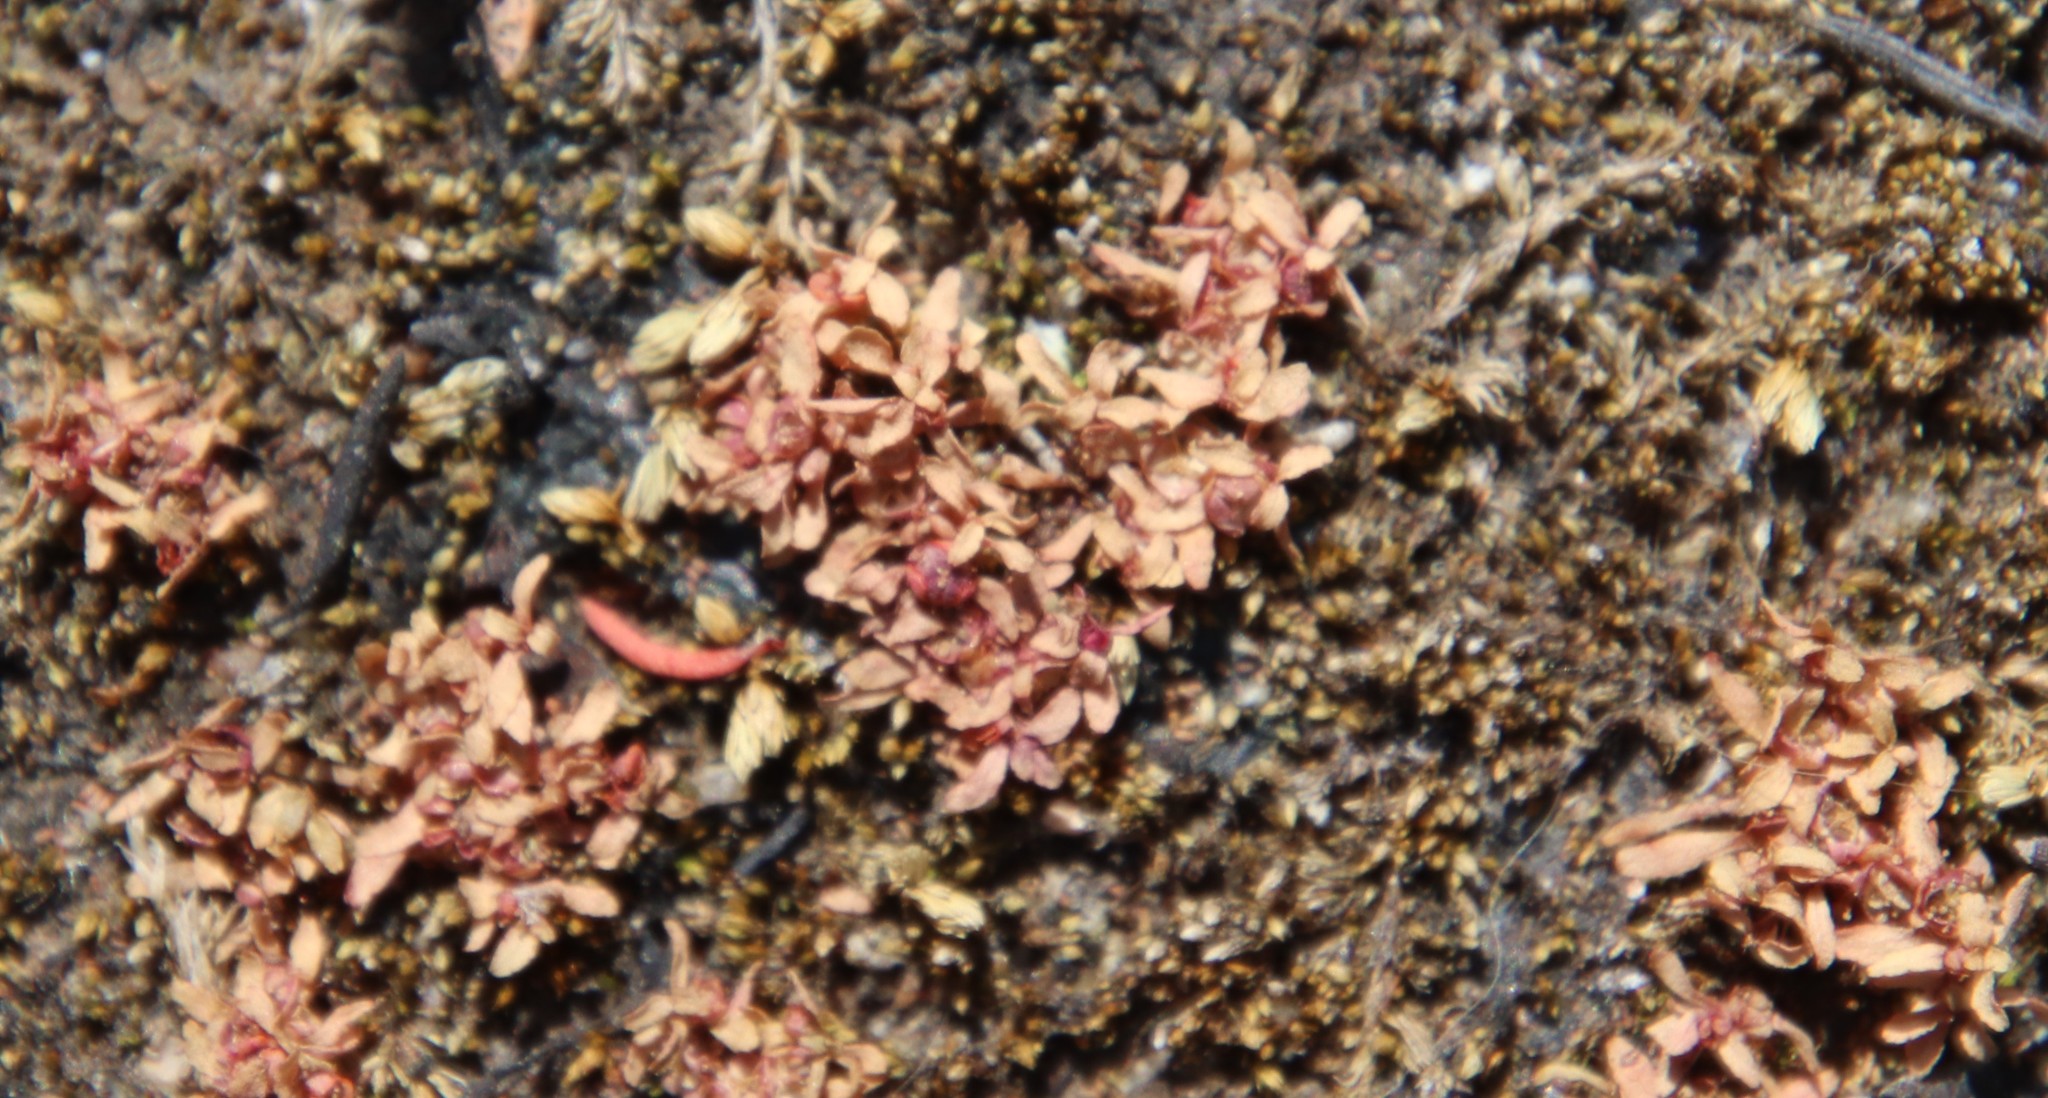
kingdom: Plantae
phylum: Tracheophyta
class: Magnoliopsida
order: Malpighiales
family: Elatinaceae
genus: Elatine
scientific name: Elatine brachysperma
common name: Short-fruited waterwort
